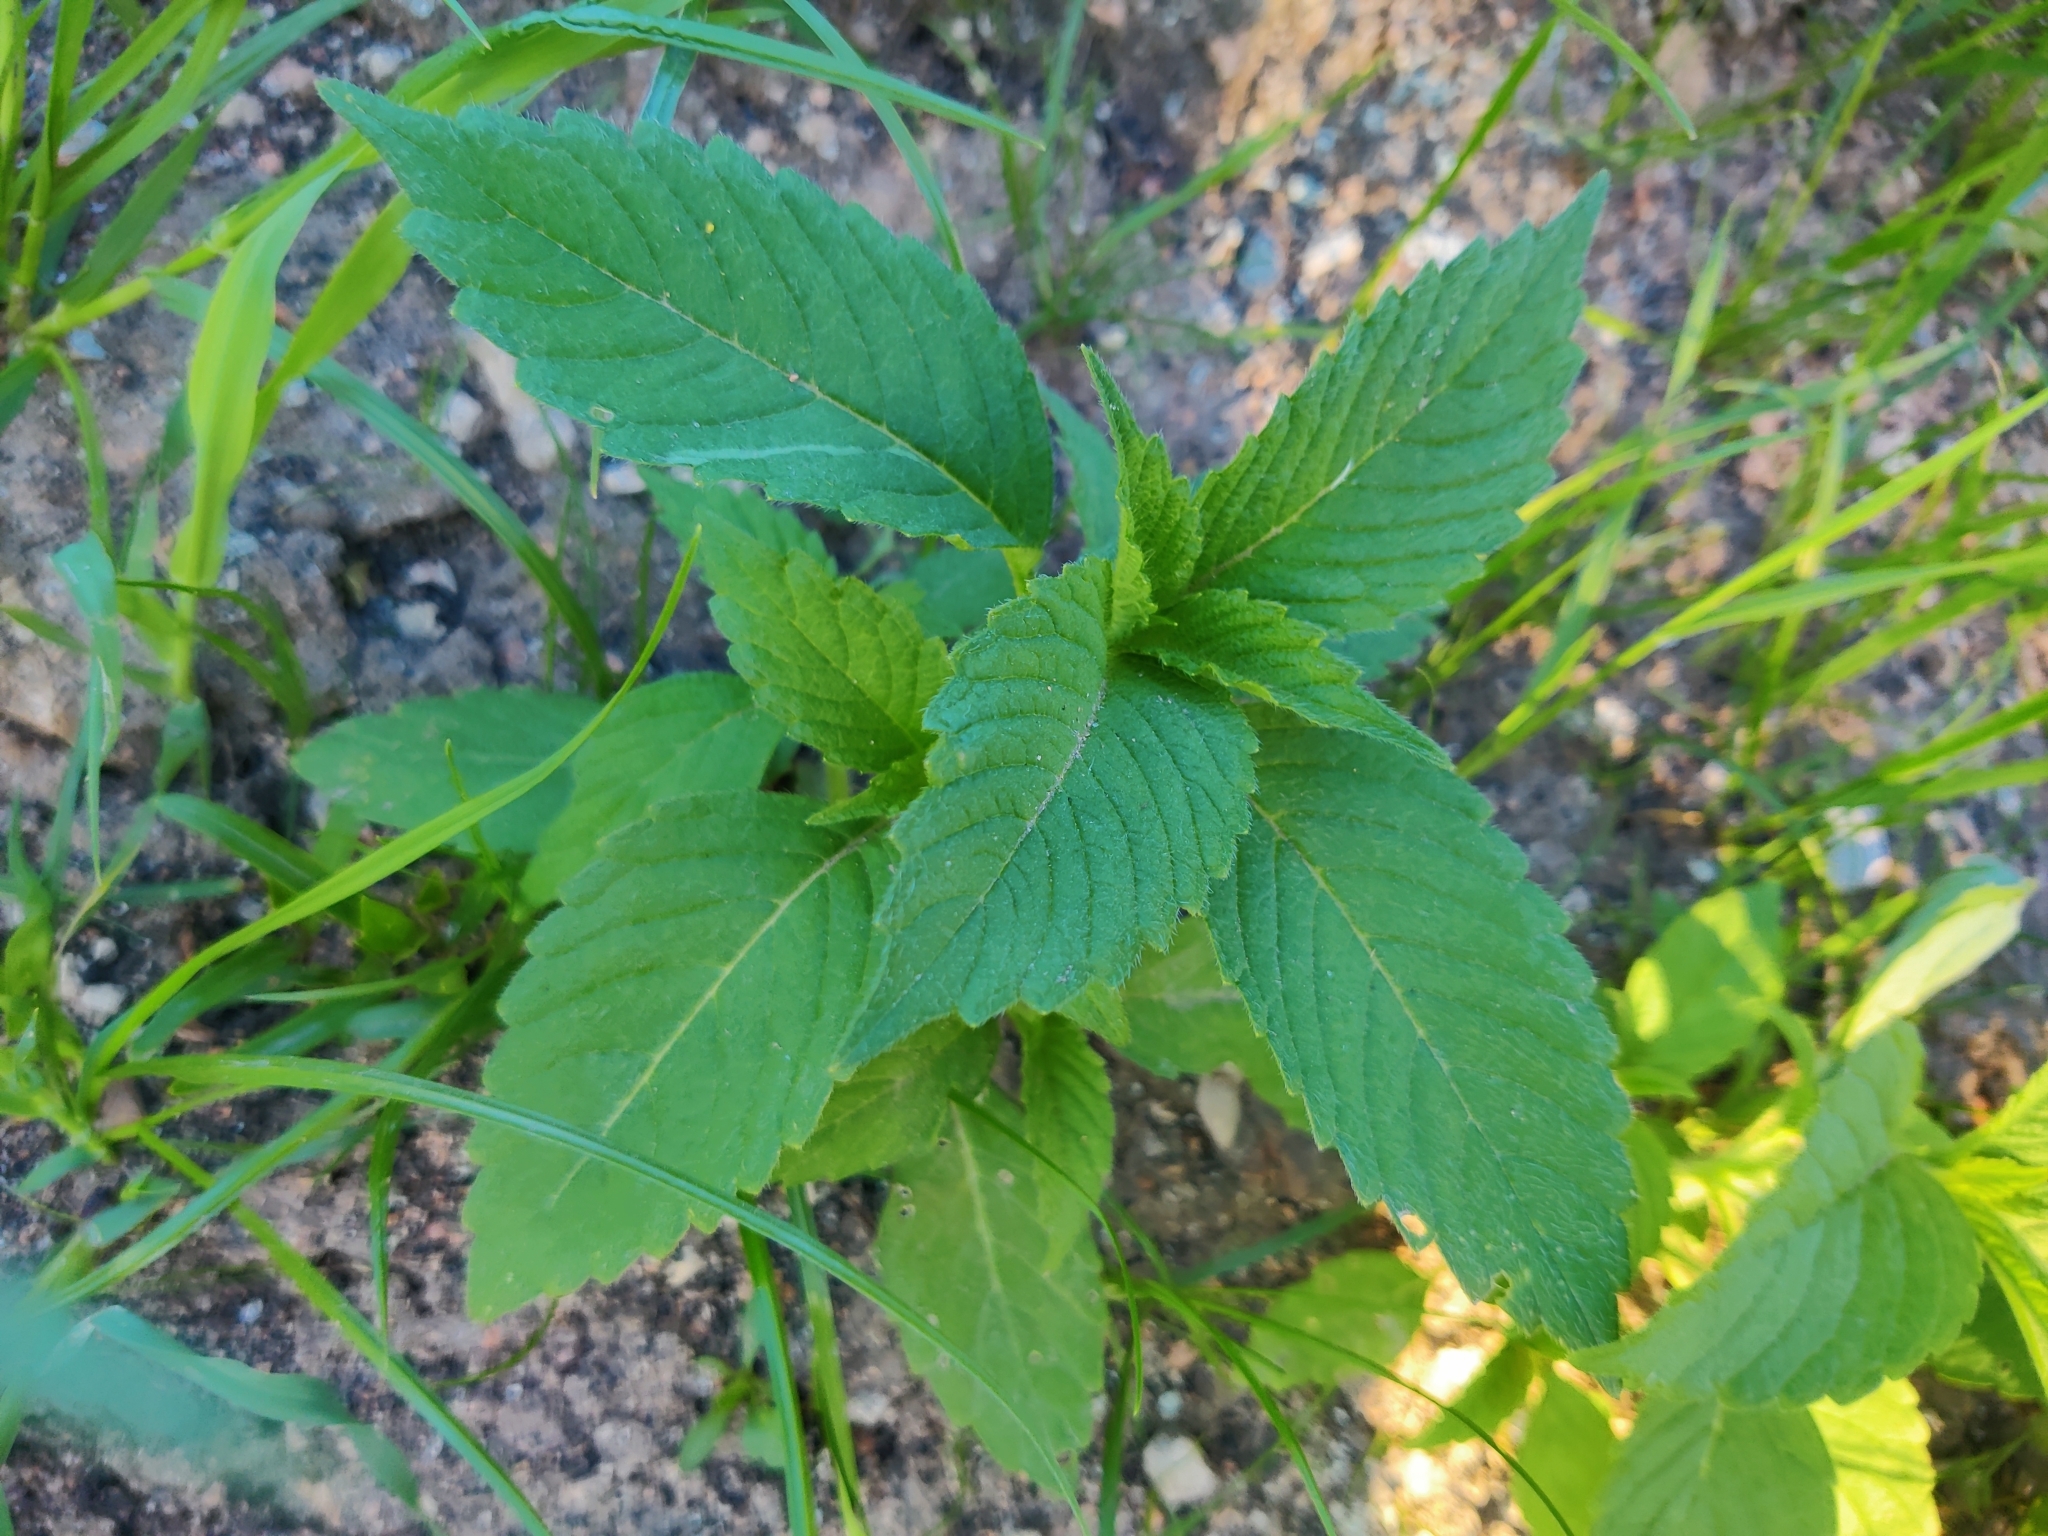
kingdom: Plantae
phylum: Tracheophyta
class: Magnoliopsida
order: Lamiales
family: Lamiaceae
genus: Galeopsis
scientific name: Galeopsis bifida
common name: Bifid hemp-nettle
